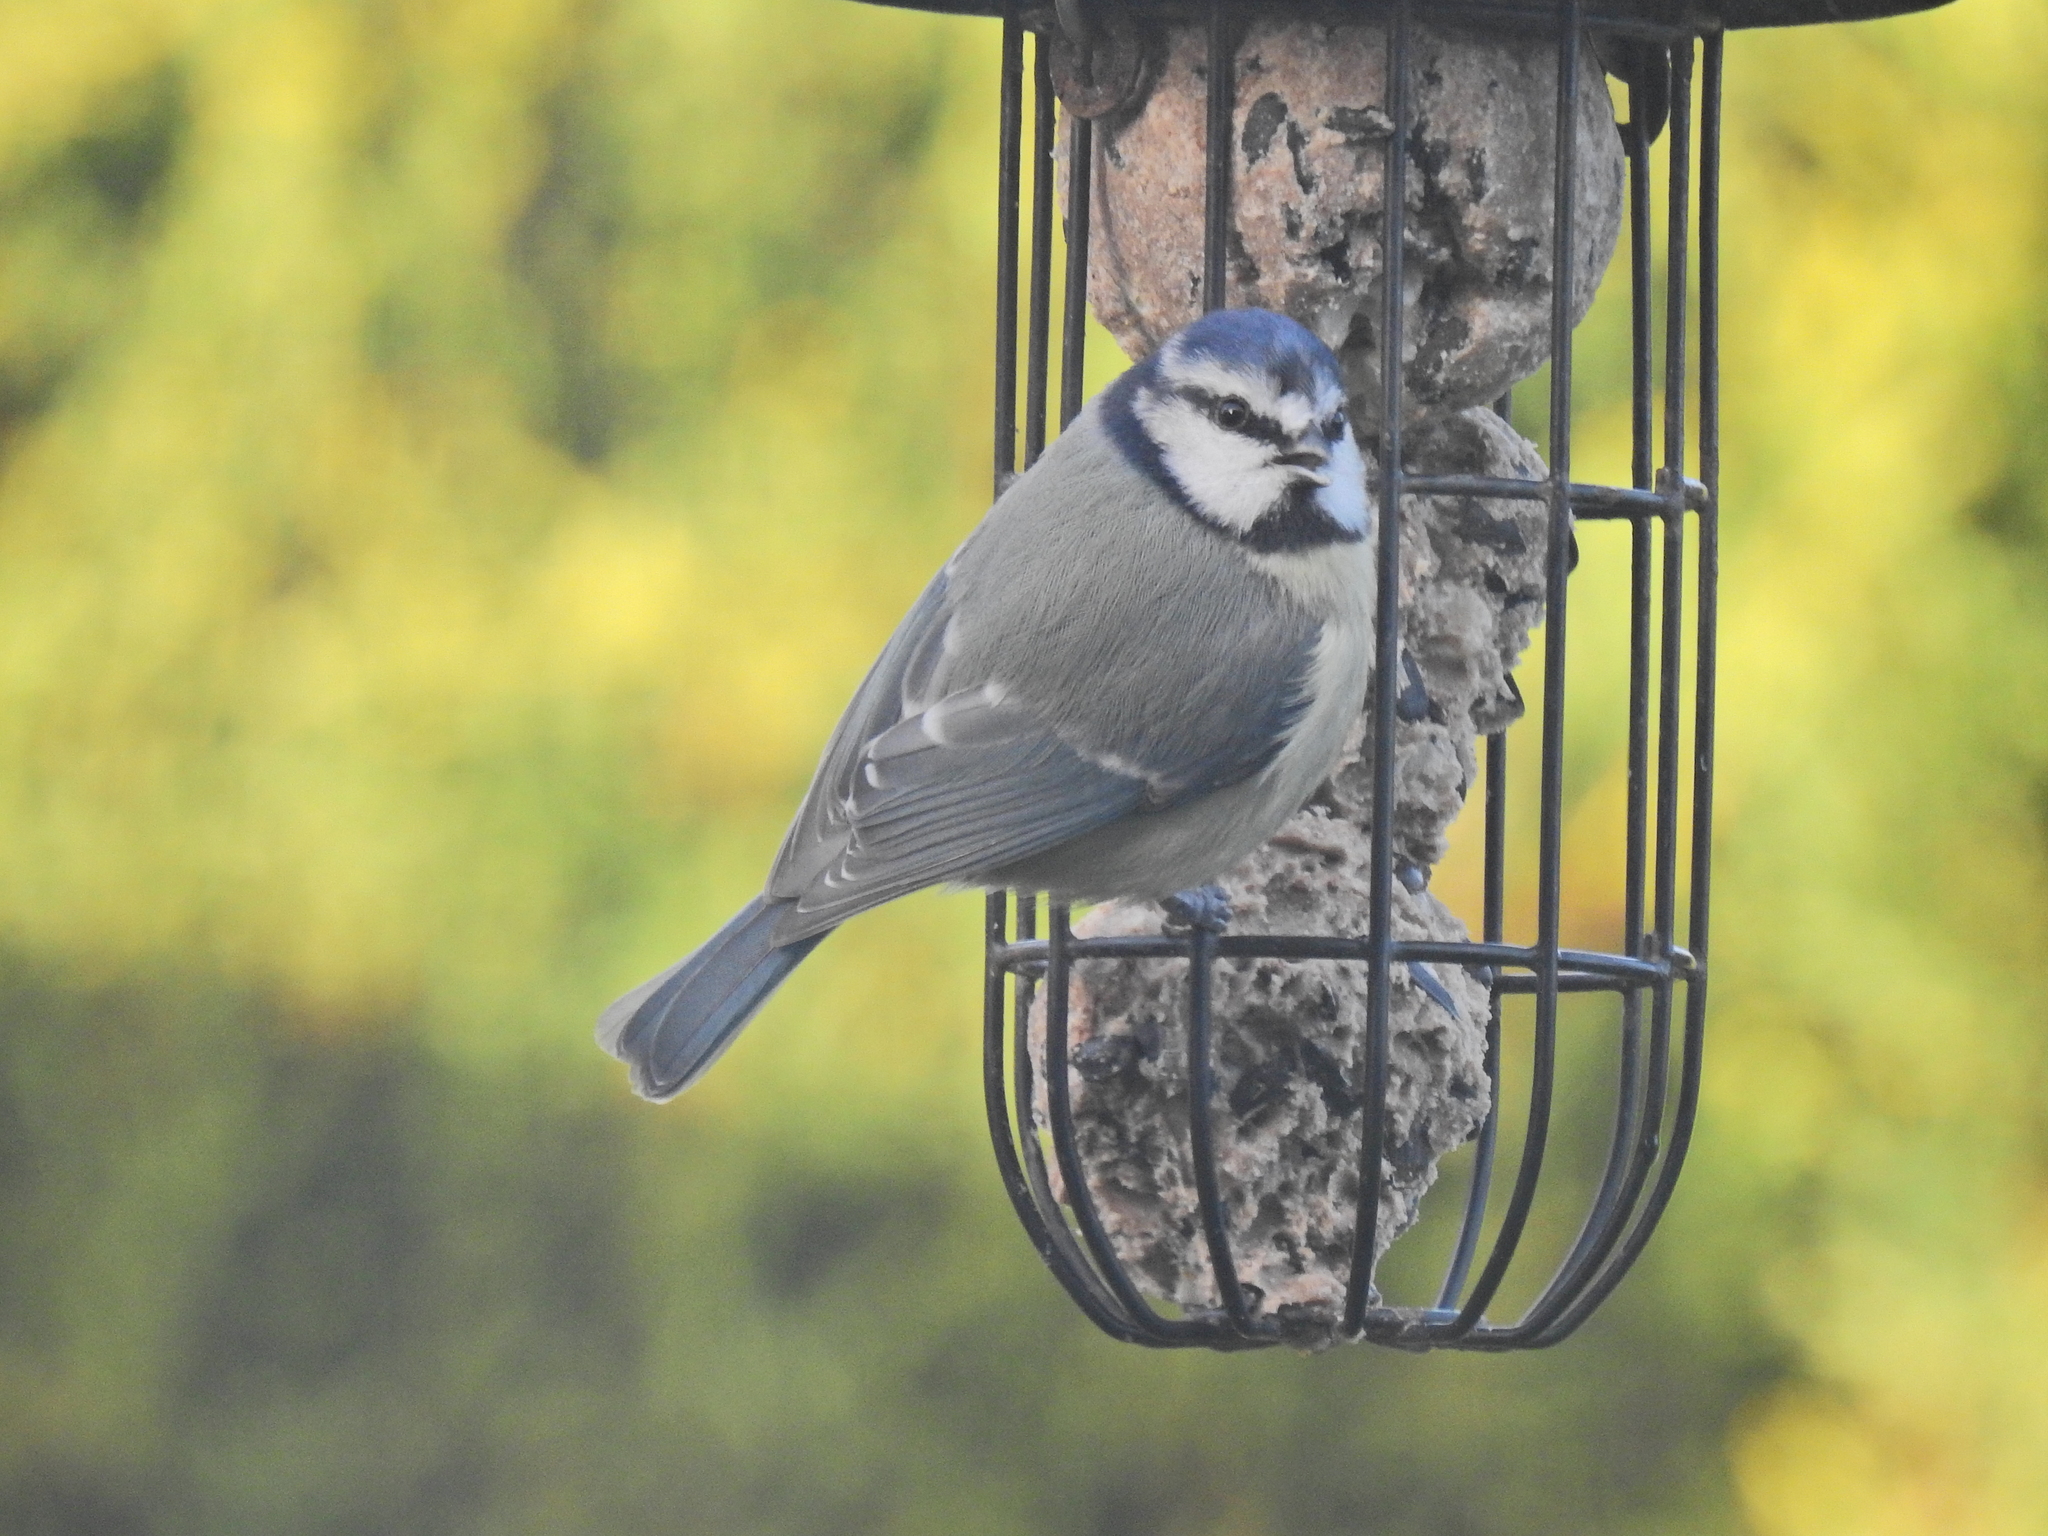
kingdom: Animalia
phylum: Chordata
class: Aves
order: Passeriformes
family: Paridae
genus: Cyanistes
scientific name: Cyanistes caeruleus
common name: Eurasian blue tit
